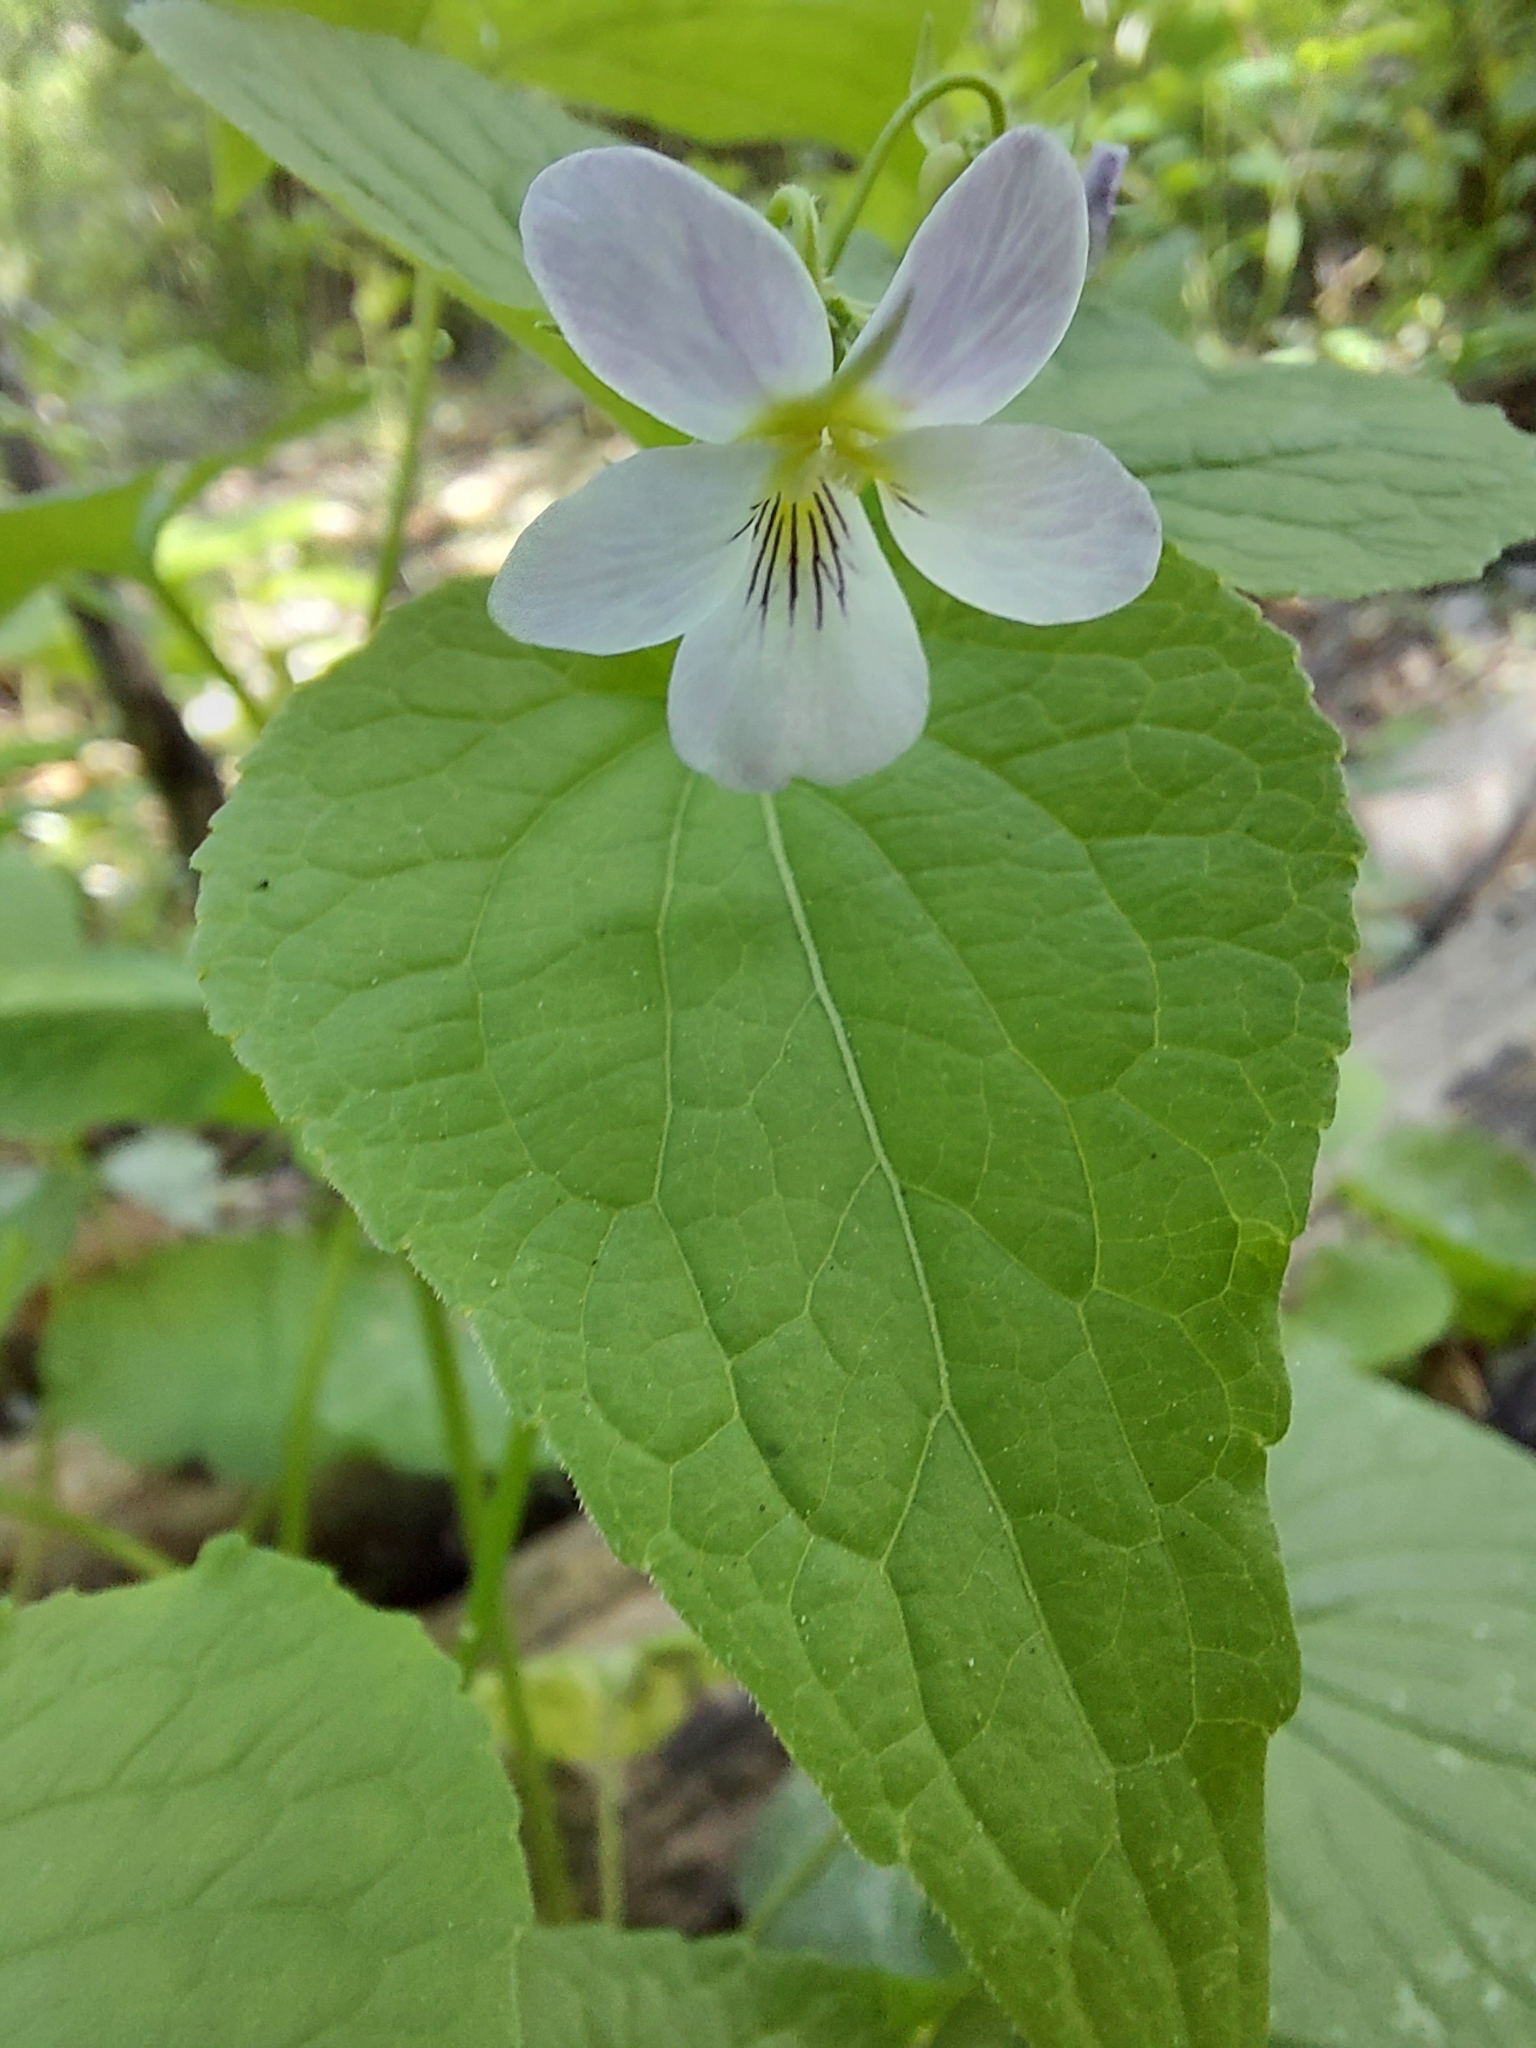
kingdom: Plantae
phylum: Tracheophyta
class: Magnoliopsida
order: Malpighiales
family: Violaceae
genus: Viola
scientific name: Viola canadensis
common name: Canada violet
